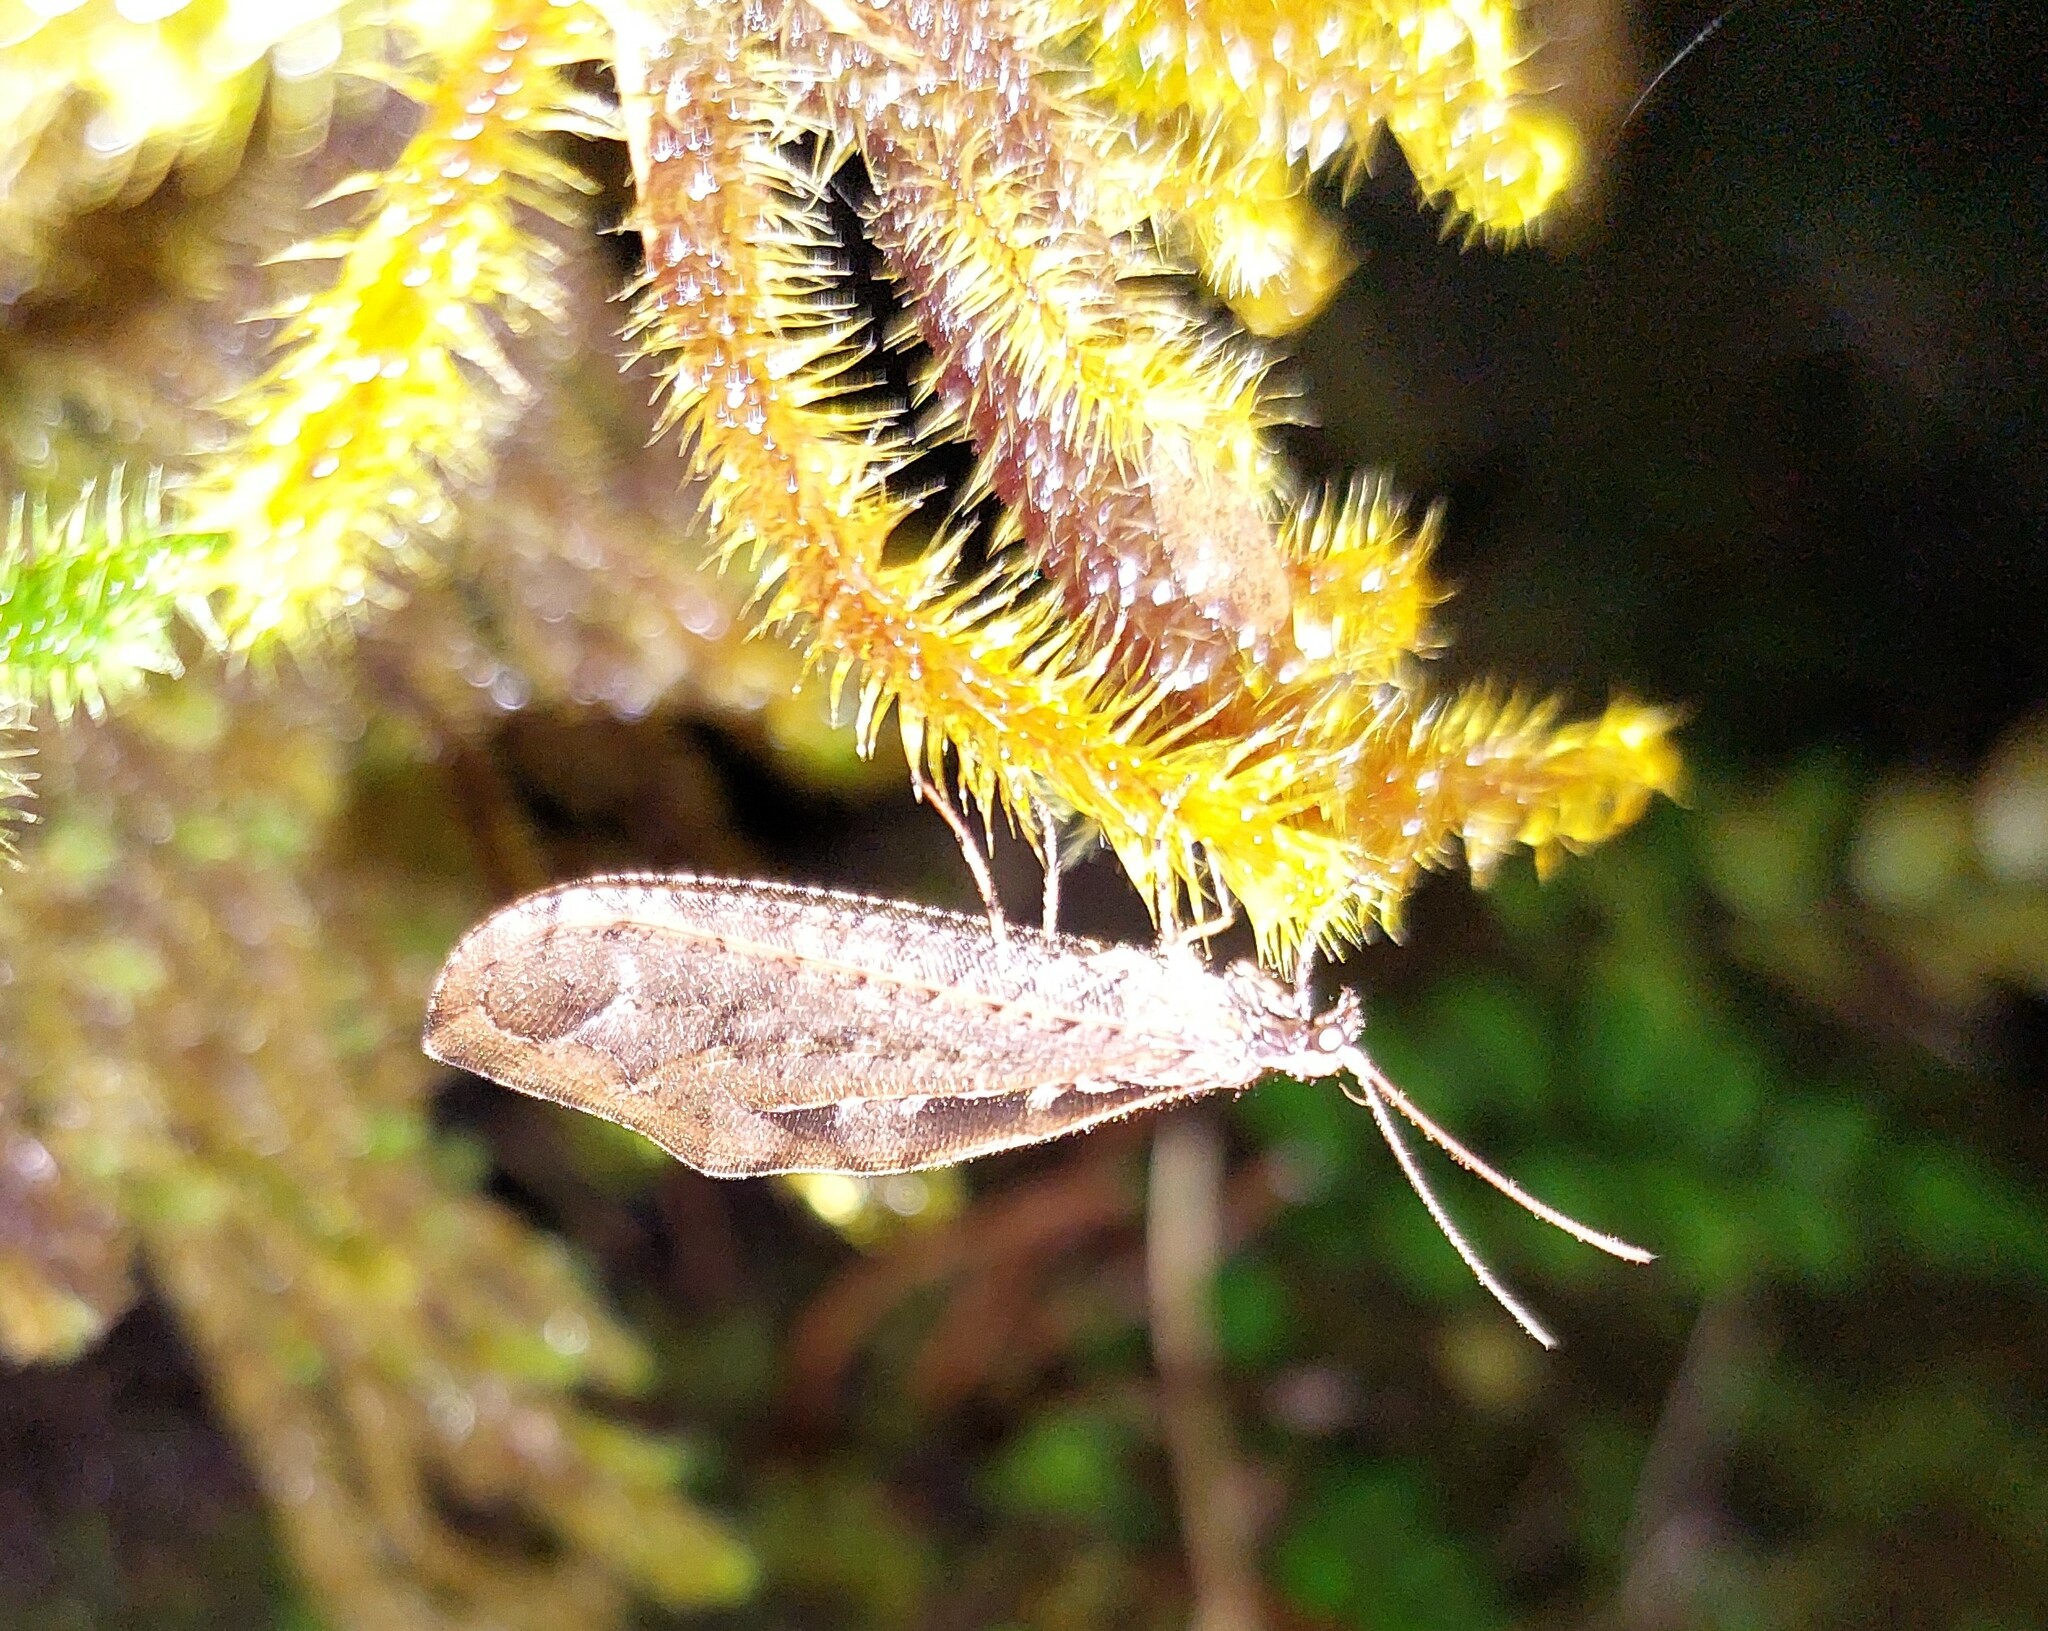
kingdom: Animalia
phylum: Arthropoda
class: Insecta
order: Neuroptera
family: Osmylidae
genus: Kempynus
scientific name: Kempynus incisus
